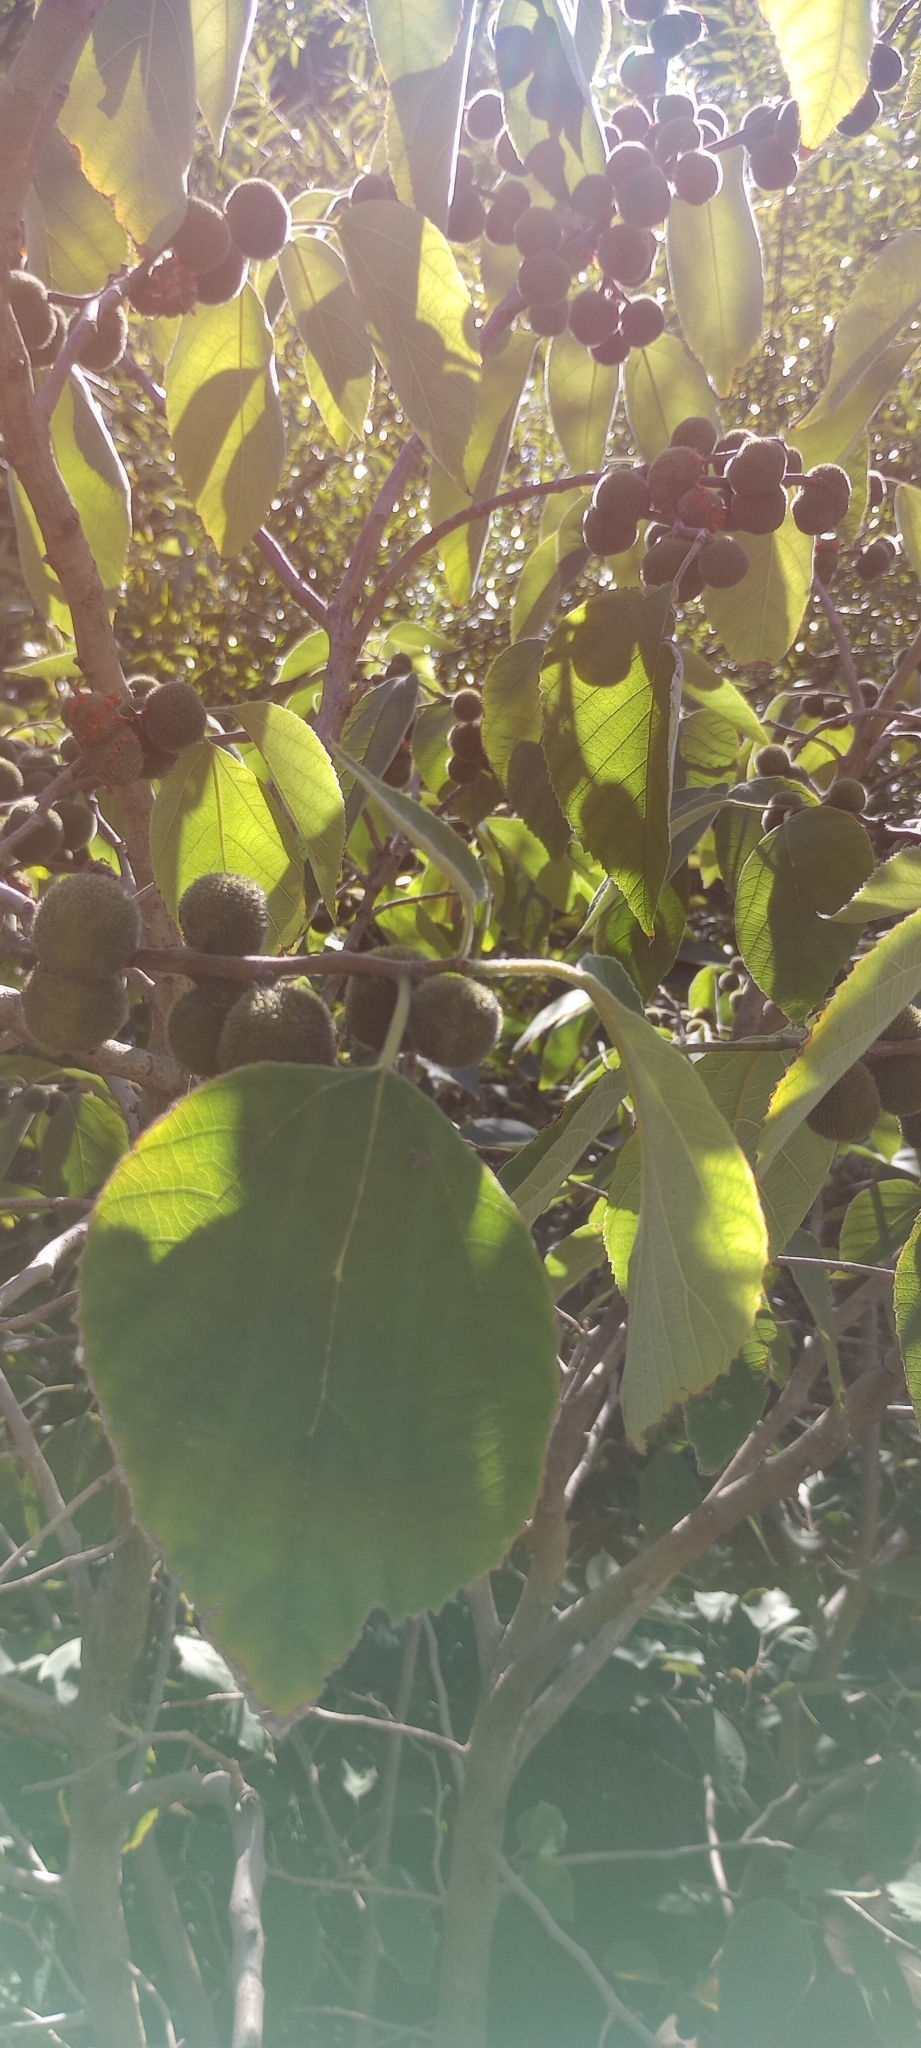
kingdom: Plantae
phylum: Tracheophyta
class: Magnoliopsida
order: Rosales
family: Moraceae
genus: Broussonetia
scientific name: Broussonetia papyrifera
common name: Paper mulberry
